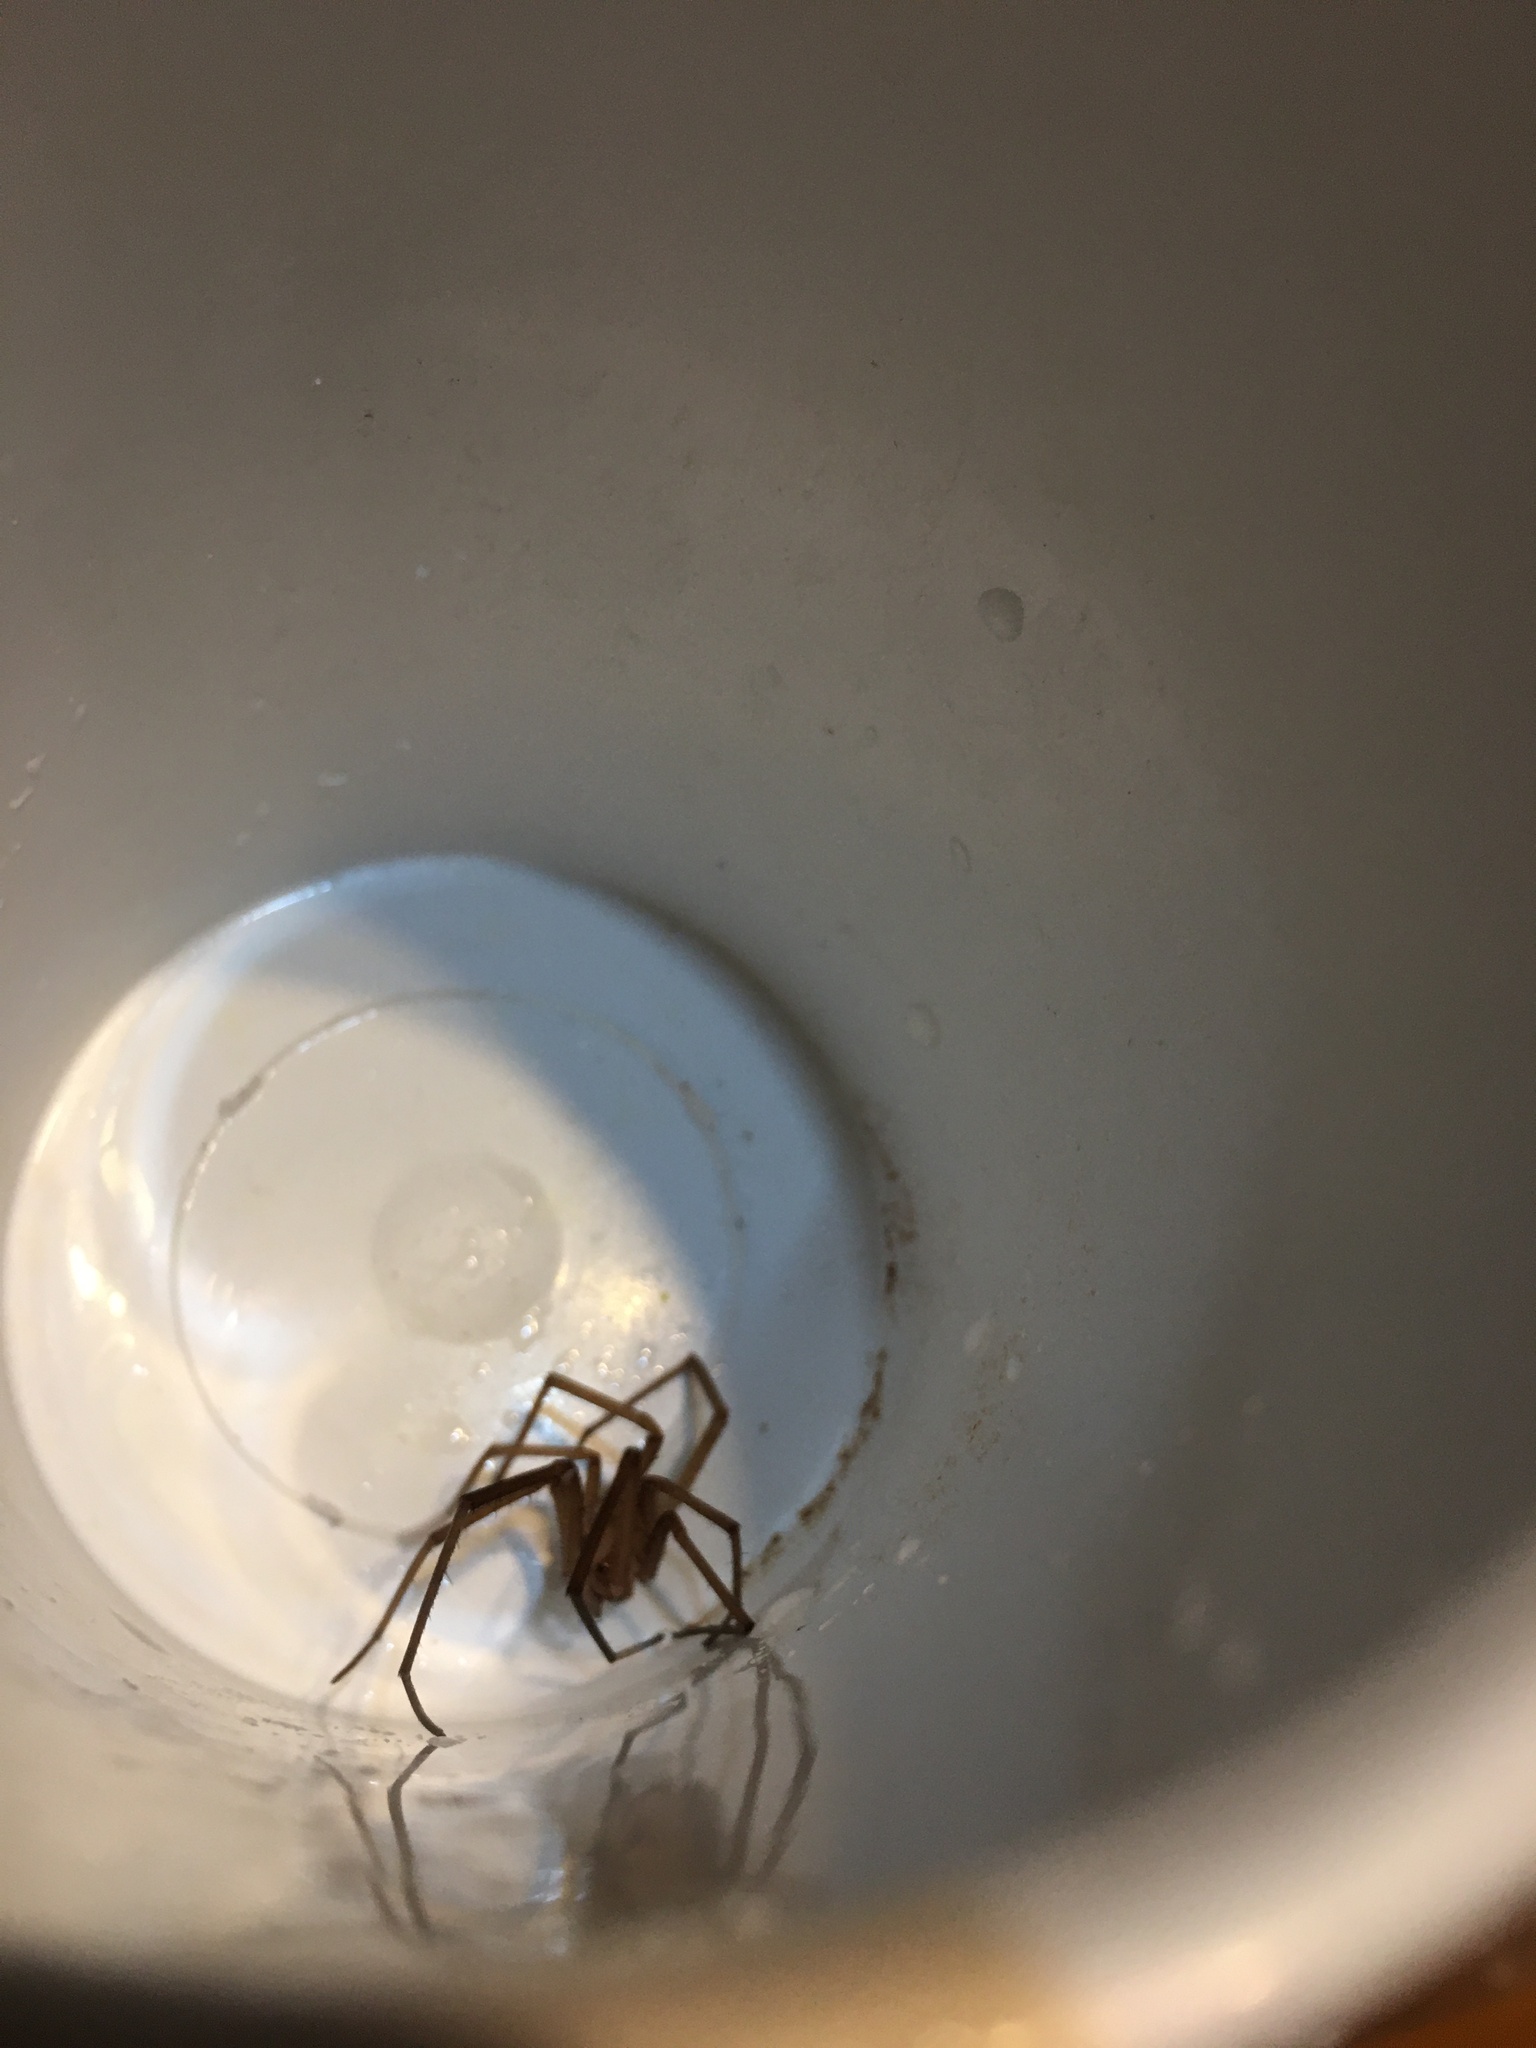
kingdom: Animalia
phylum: Arthropoda
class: Arachnida
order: Araneae
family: Filistatidae
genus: Kukulcania
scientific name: Kukulcania hibernalis
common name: Crevice weaver
